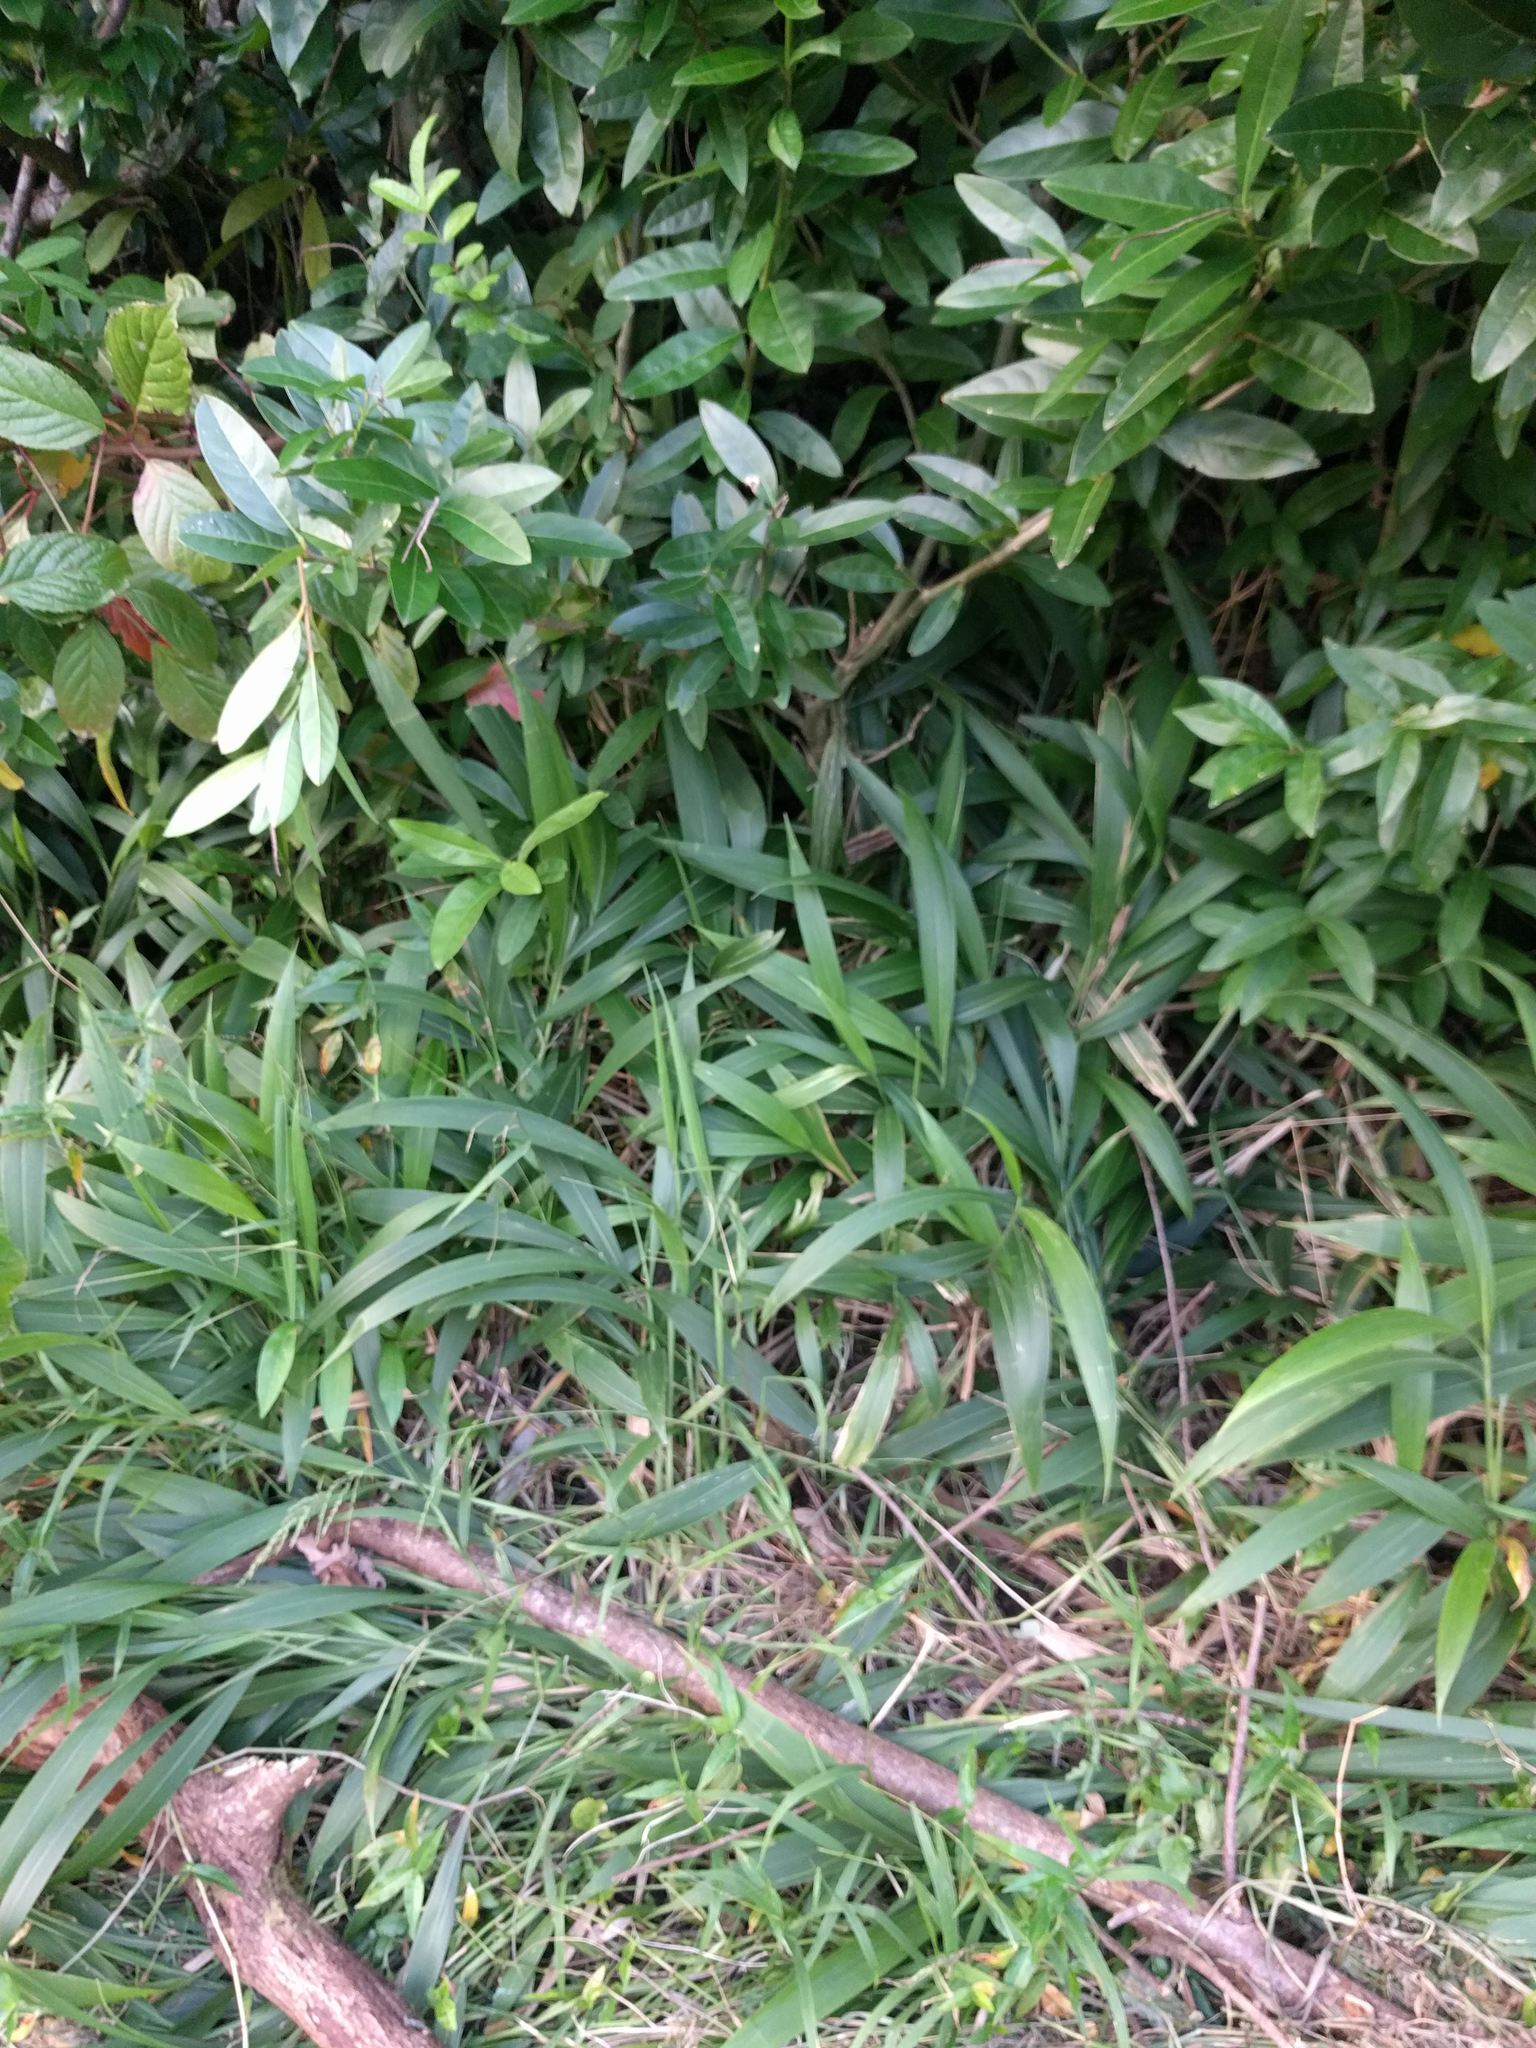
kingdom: Plantae
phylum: Tracheophyta
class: Liliopsida
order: Poales
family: Poaceae
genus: Setaria
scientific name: Setaria palmifolia
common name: Broadleaved bristlegrass
